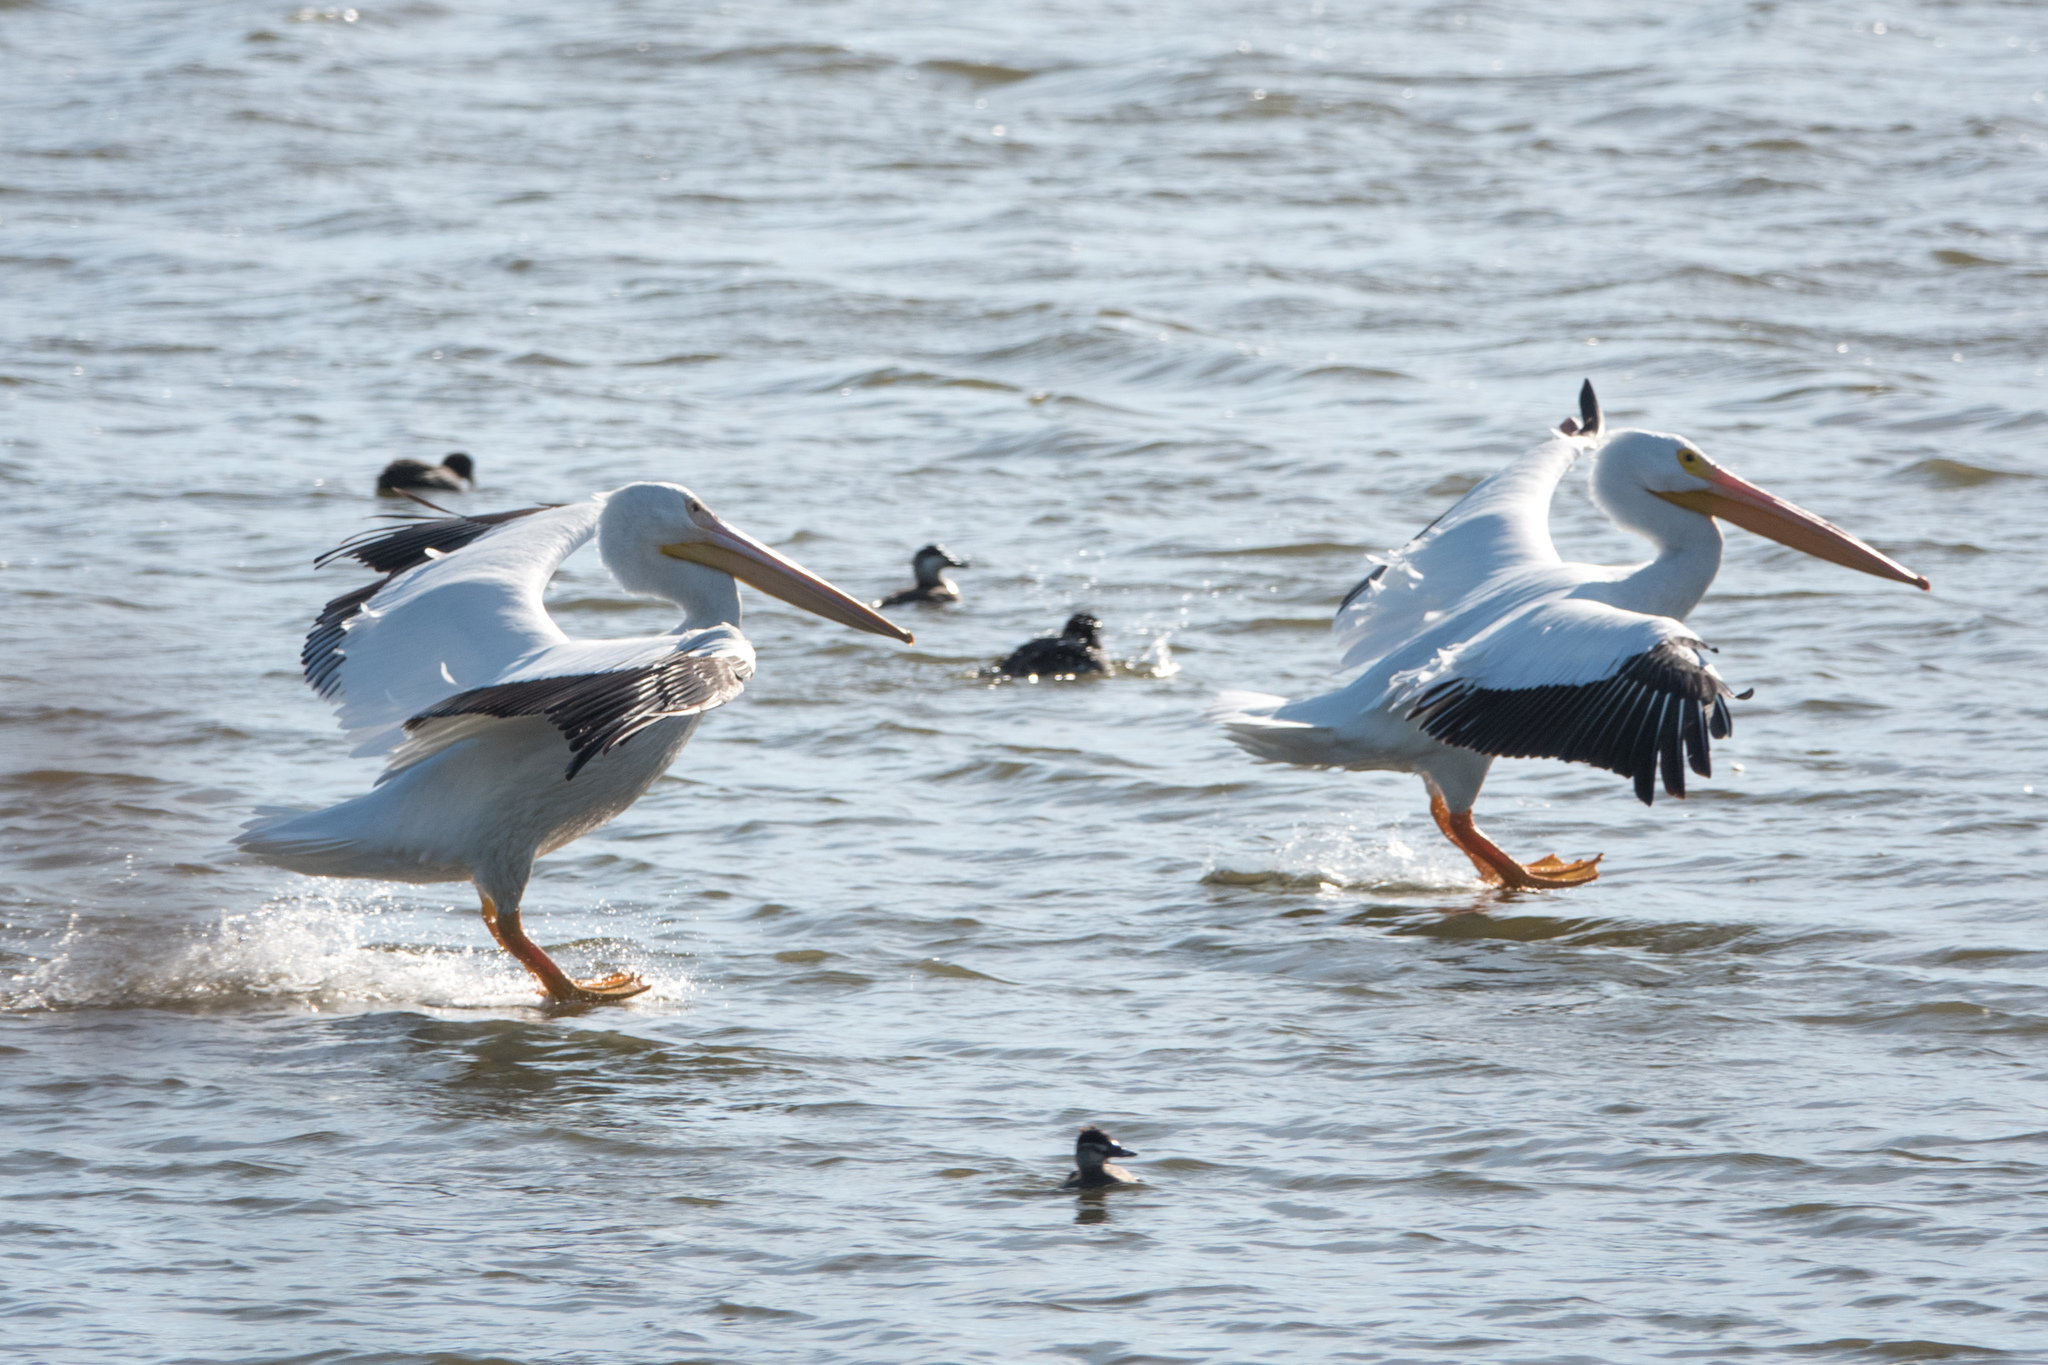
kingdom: Animalia
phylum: Chordata
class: Aves
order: Pelecaniformes
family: Pelecanidae
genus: Pelecanus
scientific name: Pelecanus erythrorhynchos
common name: American white pelican
